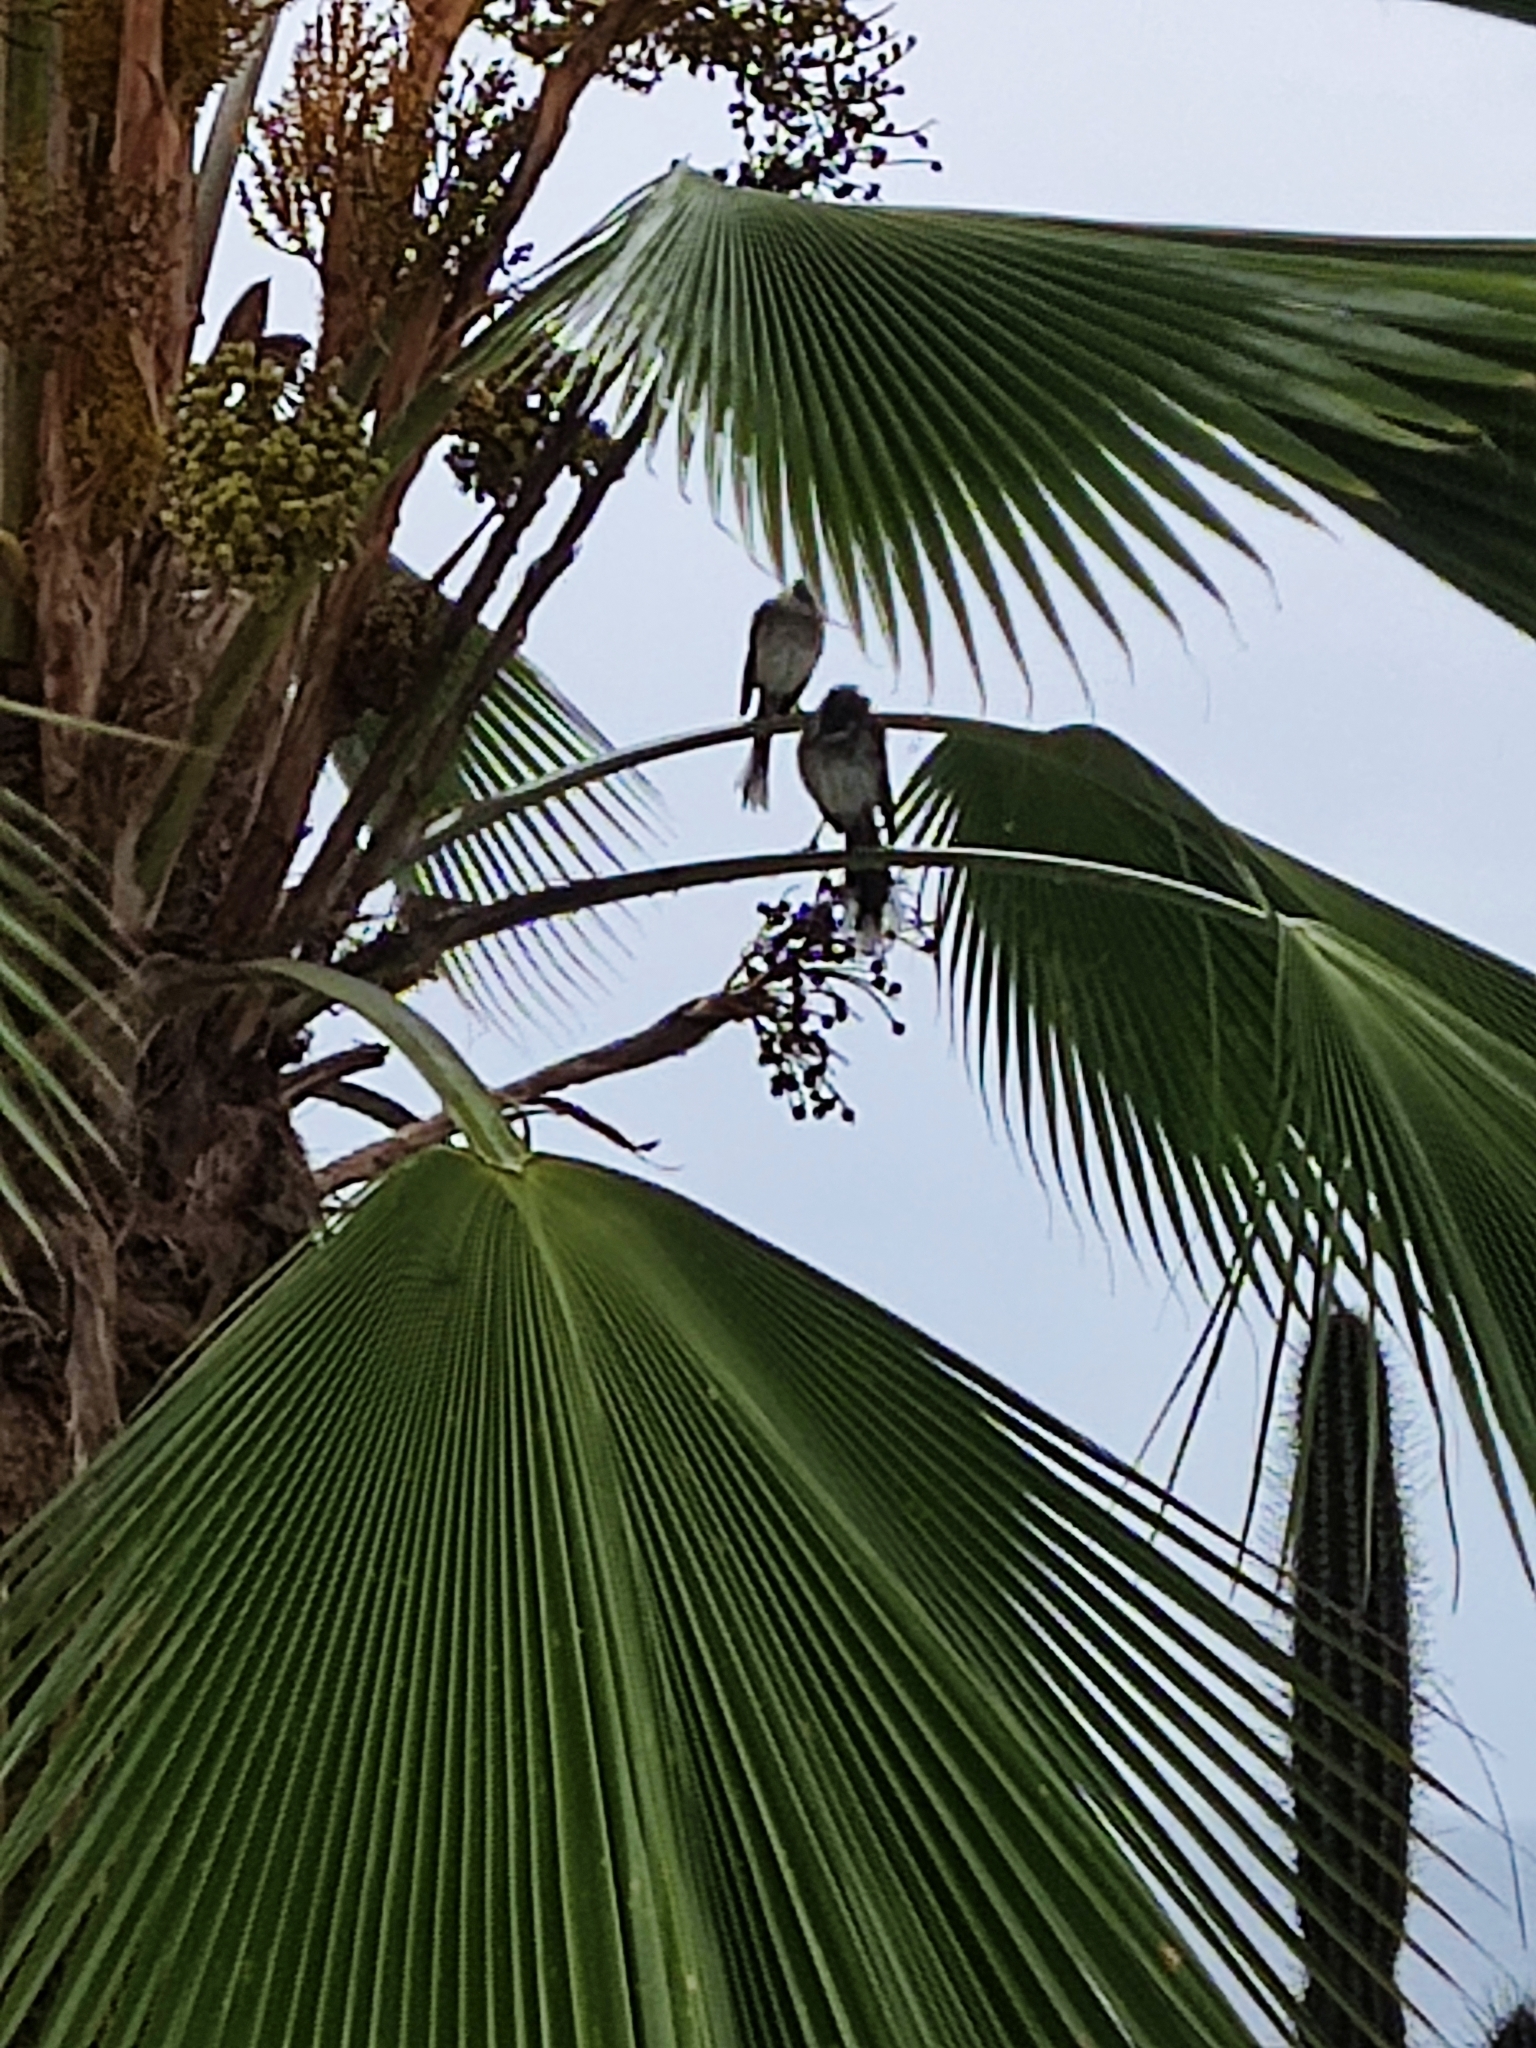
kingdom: Animalia
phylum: Chordata
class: Aves
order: Passeriformes
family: Mimidae
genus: Mimus
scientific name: Mimus gilvus
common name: Tropical mockingbird
